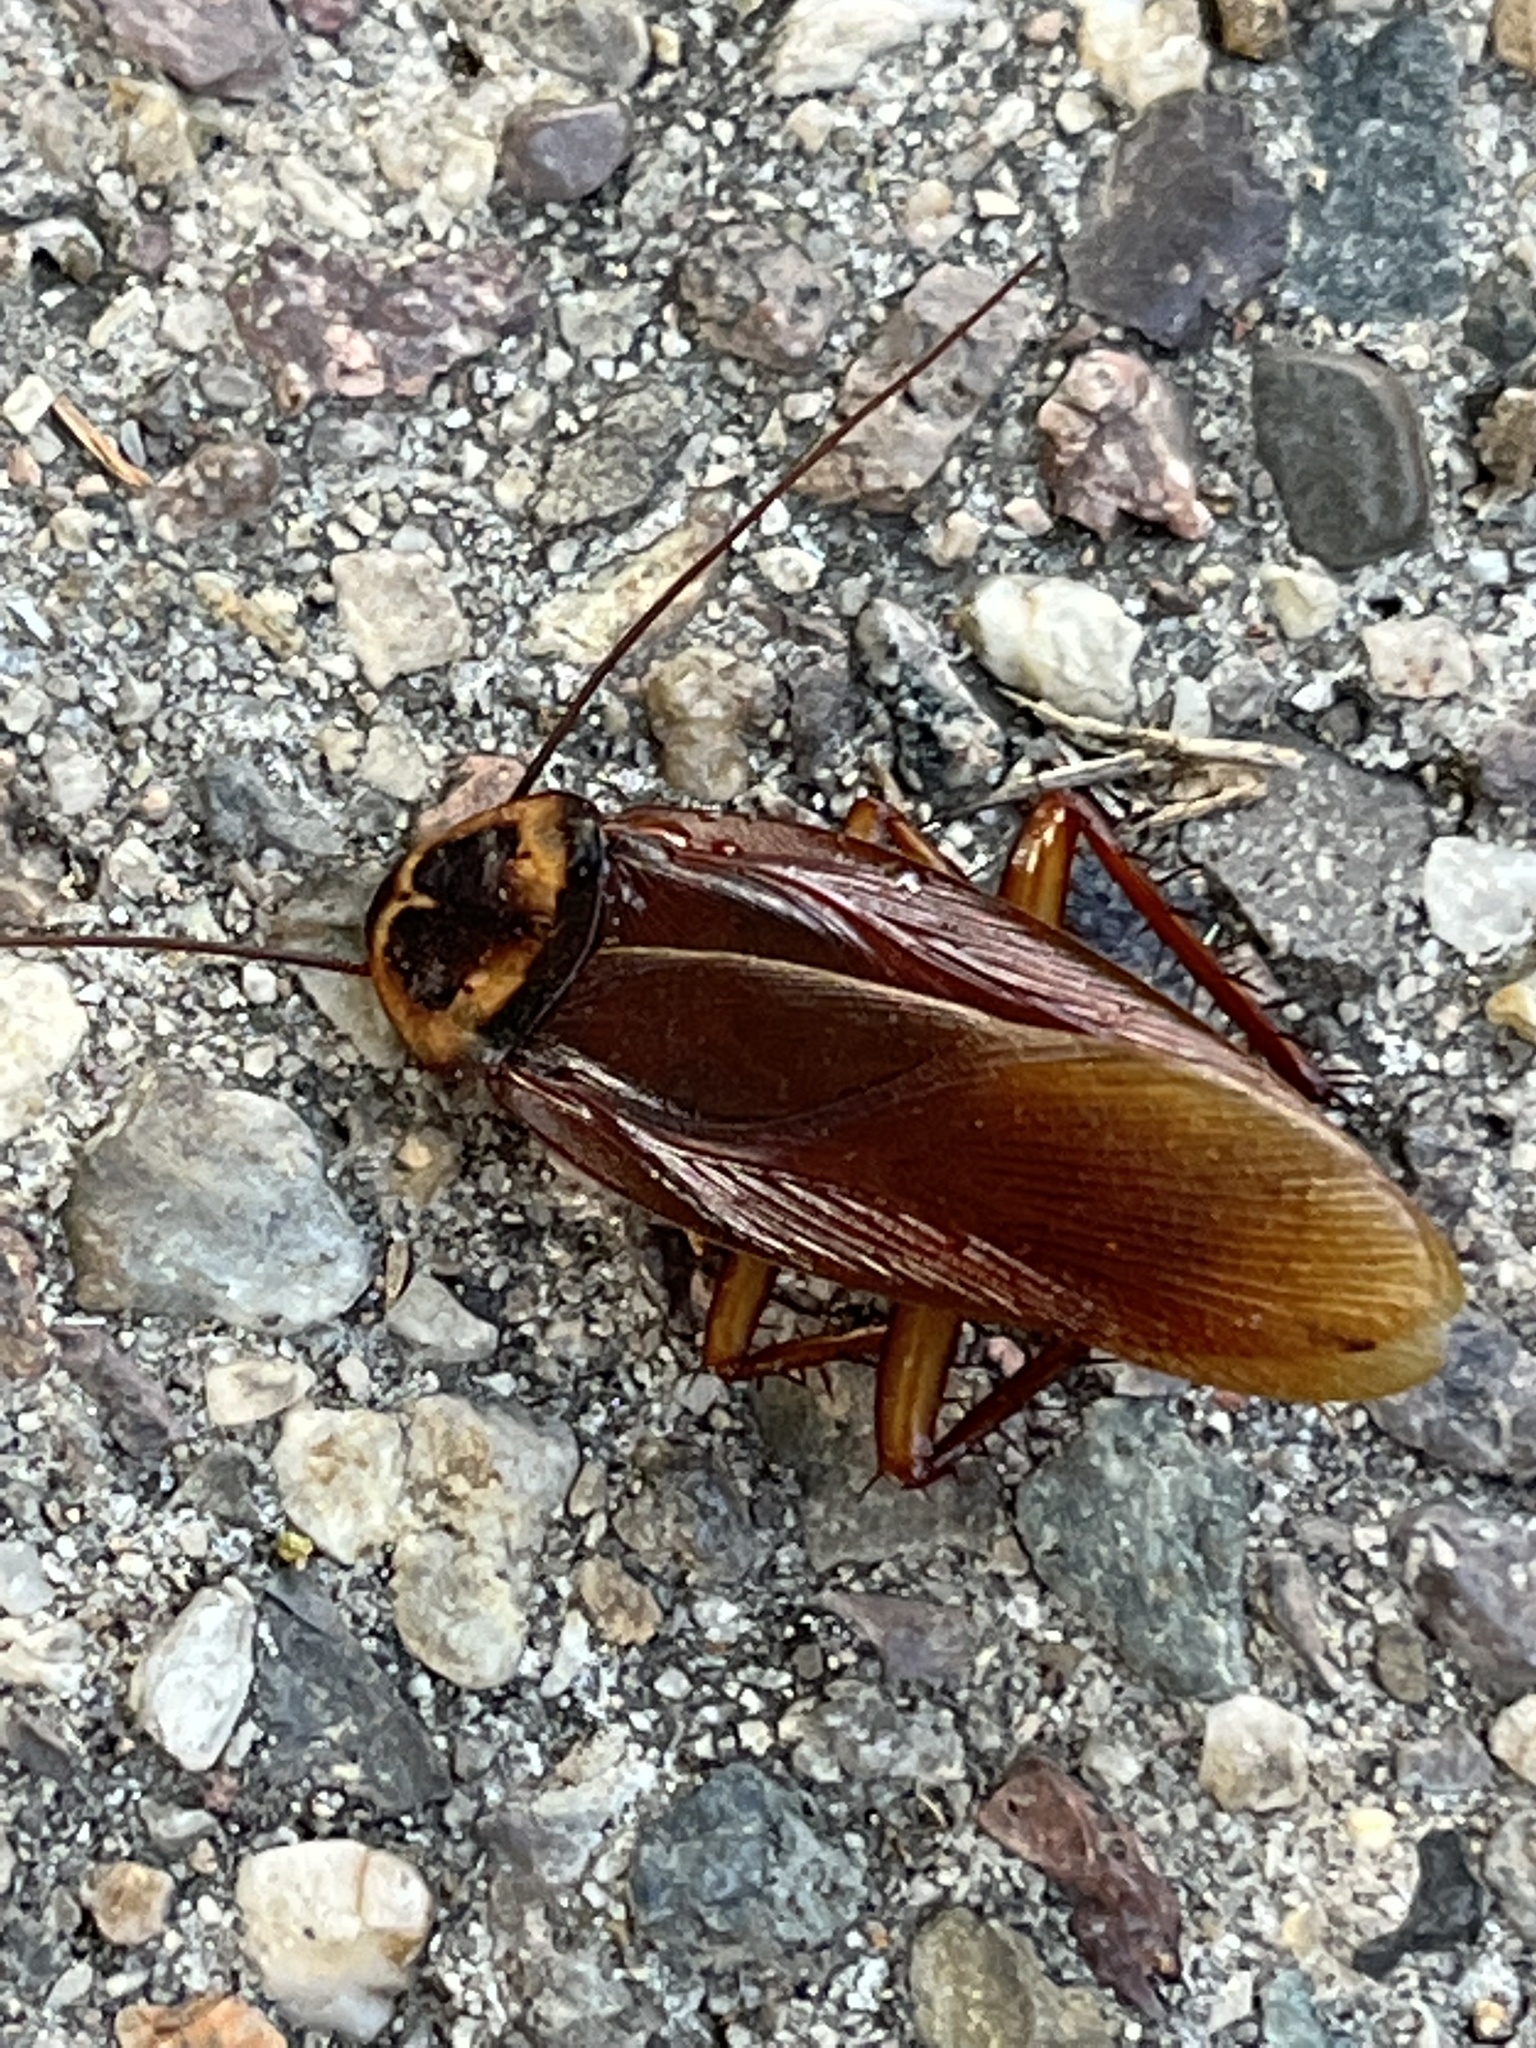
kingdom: Animalia
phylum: Arthropoda
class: Insecta
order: Blattodea
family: Blattidae
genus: Periplaneta
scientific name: Periplaneta americana
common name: American cockroach
